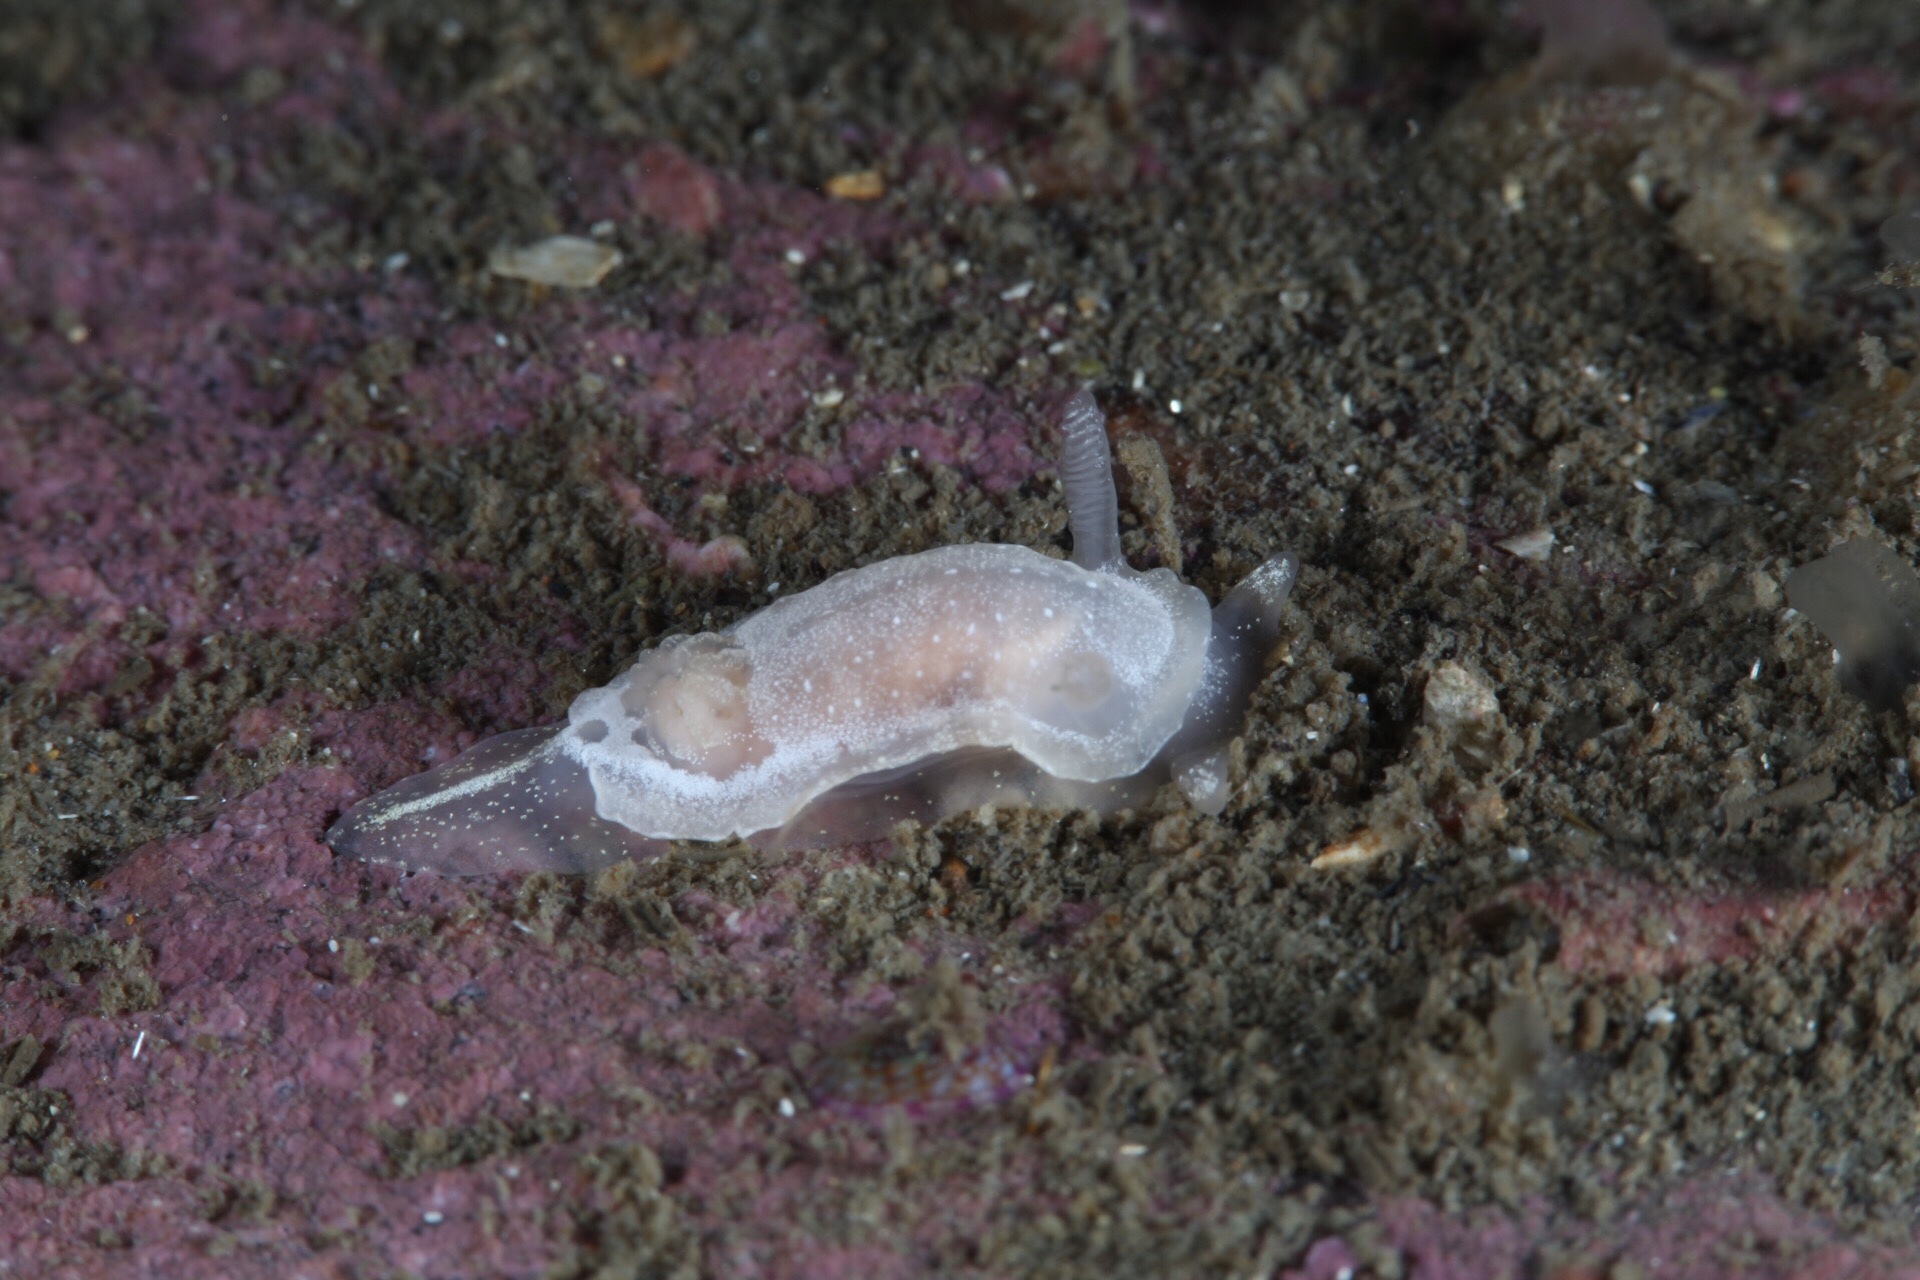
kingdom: Animalia
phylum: Mollusca
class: Gastropoda
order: Nudibranchia
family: Goniodorididae
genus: Okenia
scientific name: Okenia
